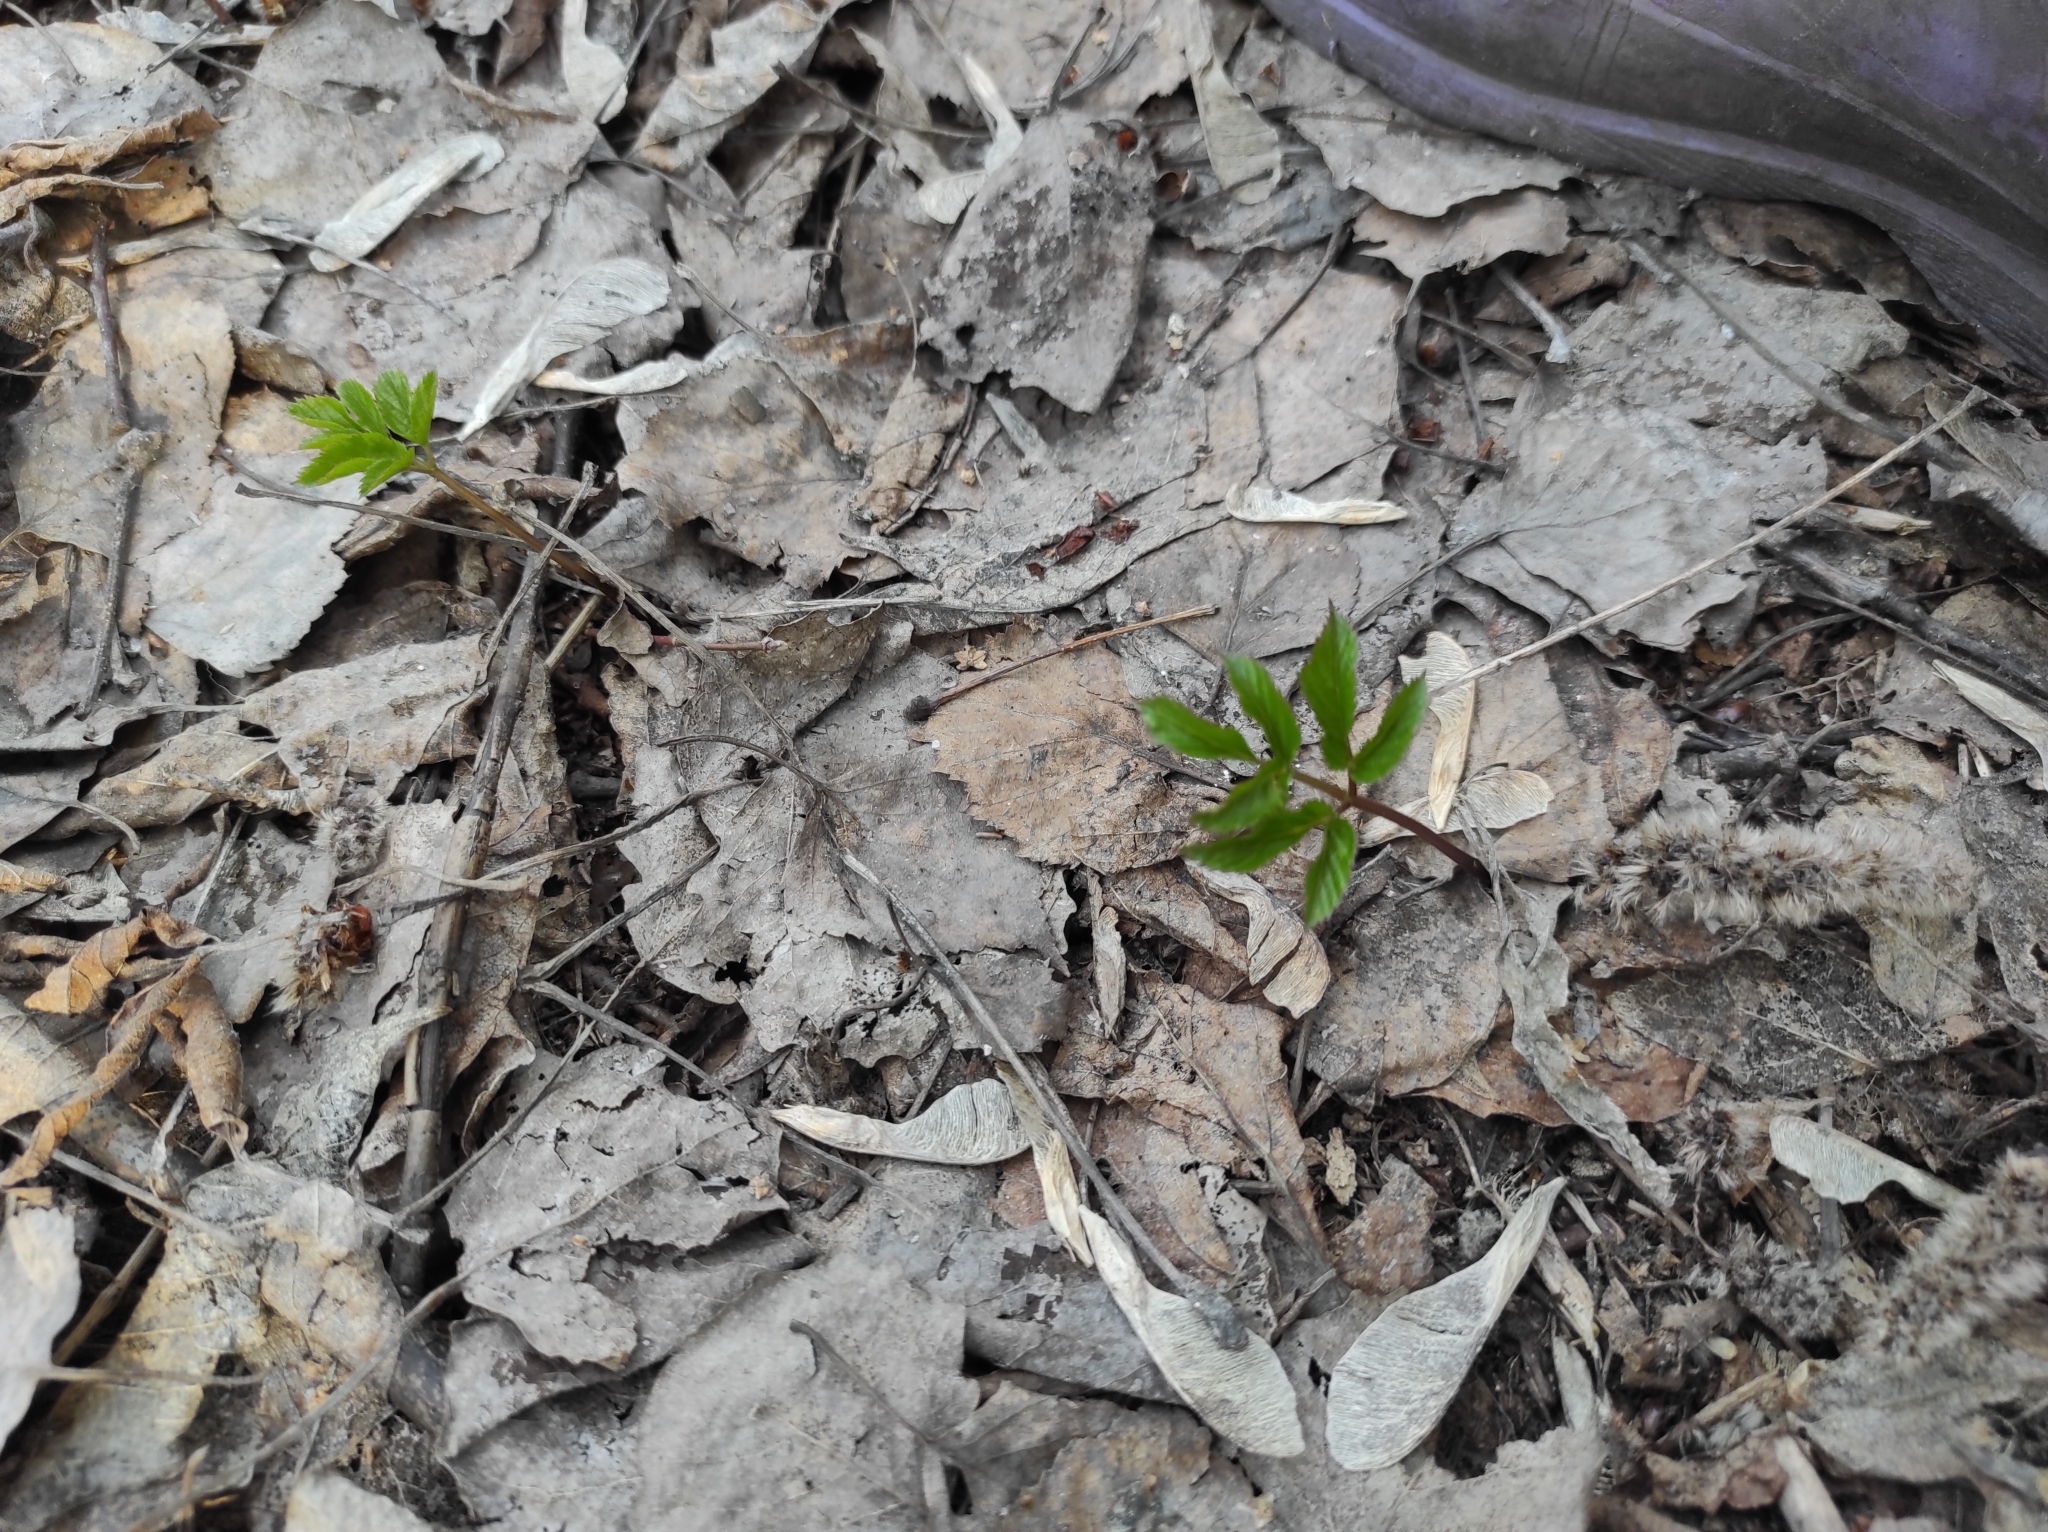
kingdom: Plantae
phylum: Tracheophyta
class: Magnoliopsida
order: Apiales
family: Apiaceae
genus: Aegopodium
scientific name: Aegopodium podagraria
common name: Ground-elder
